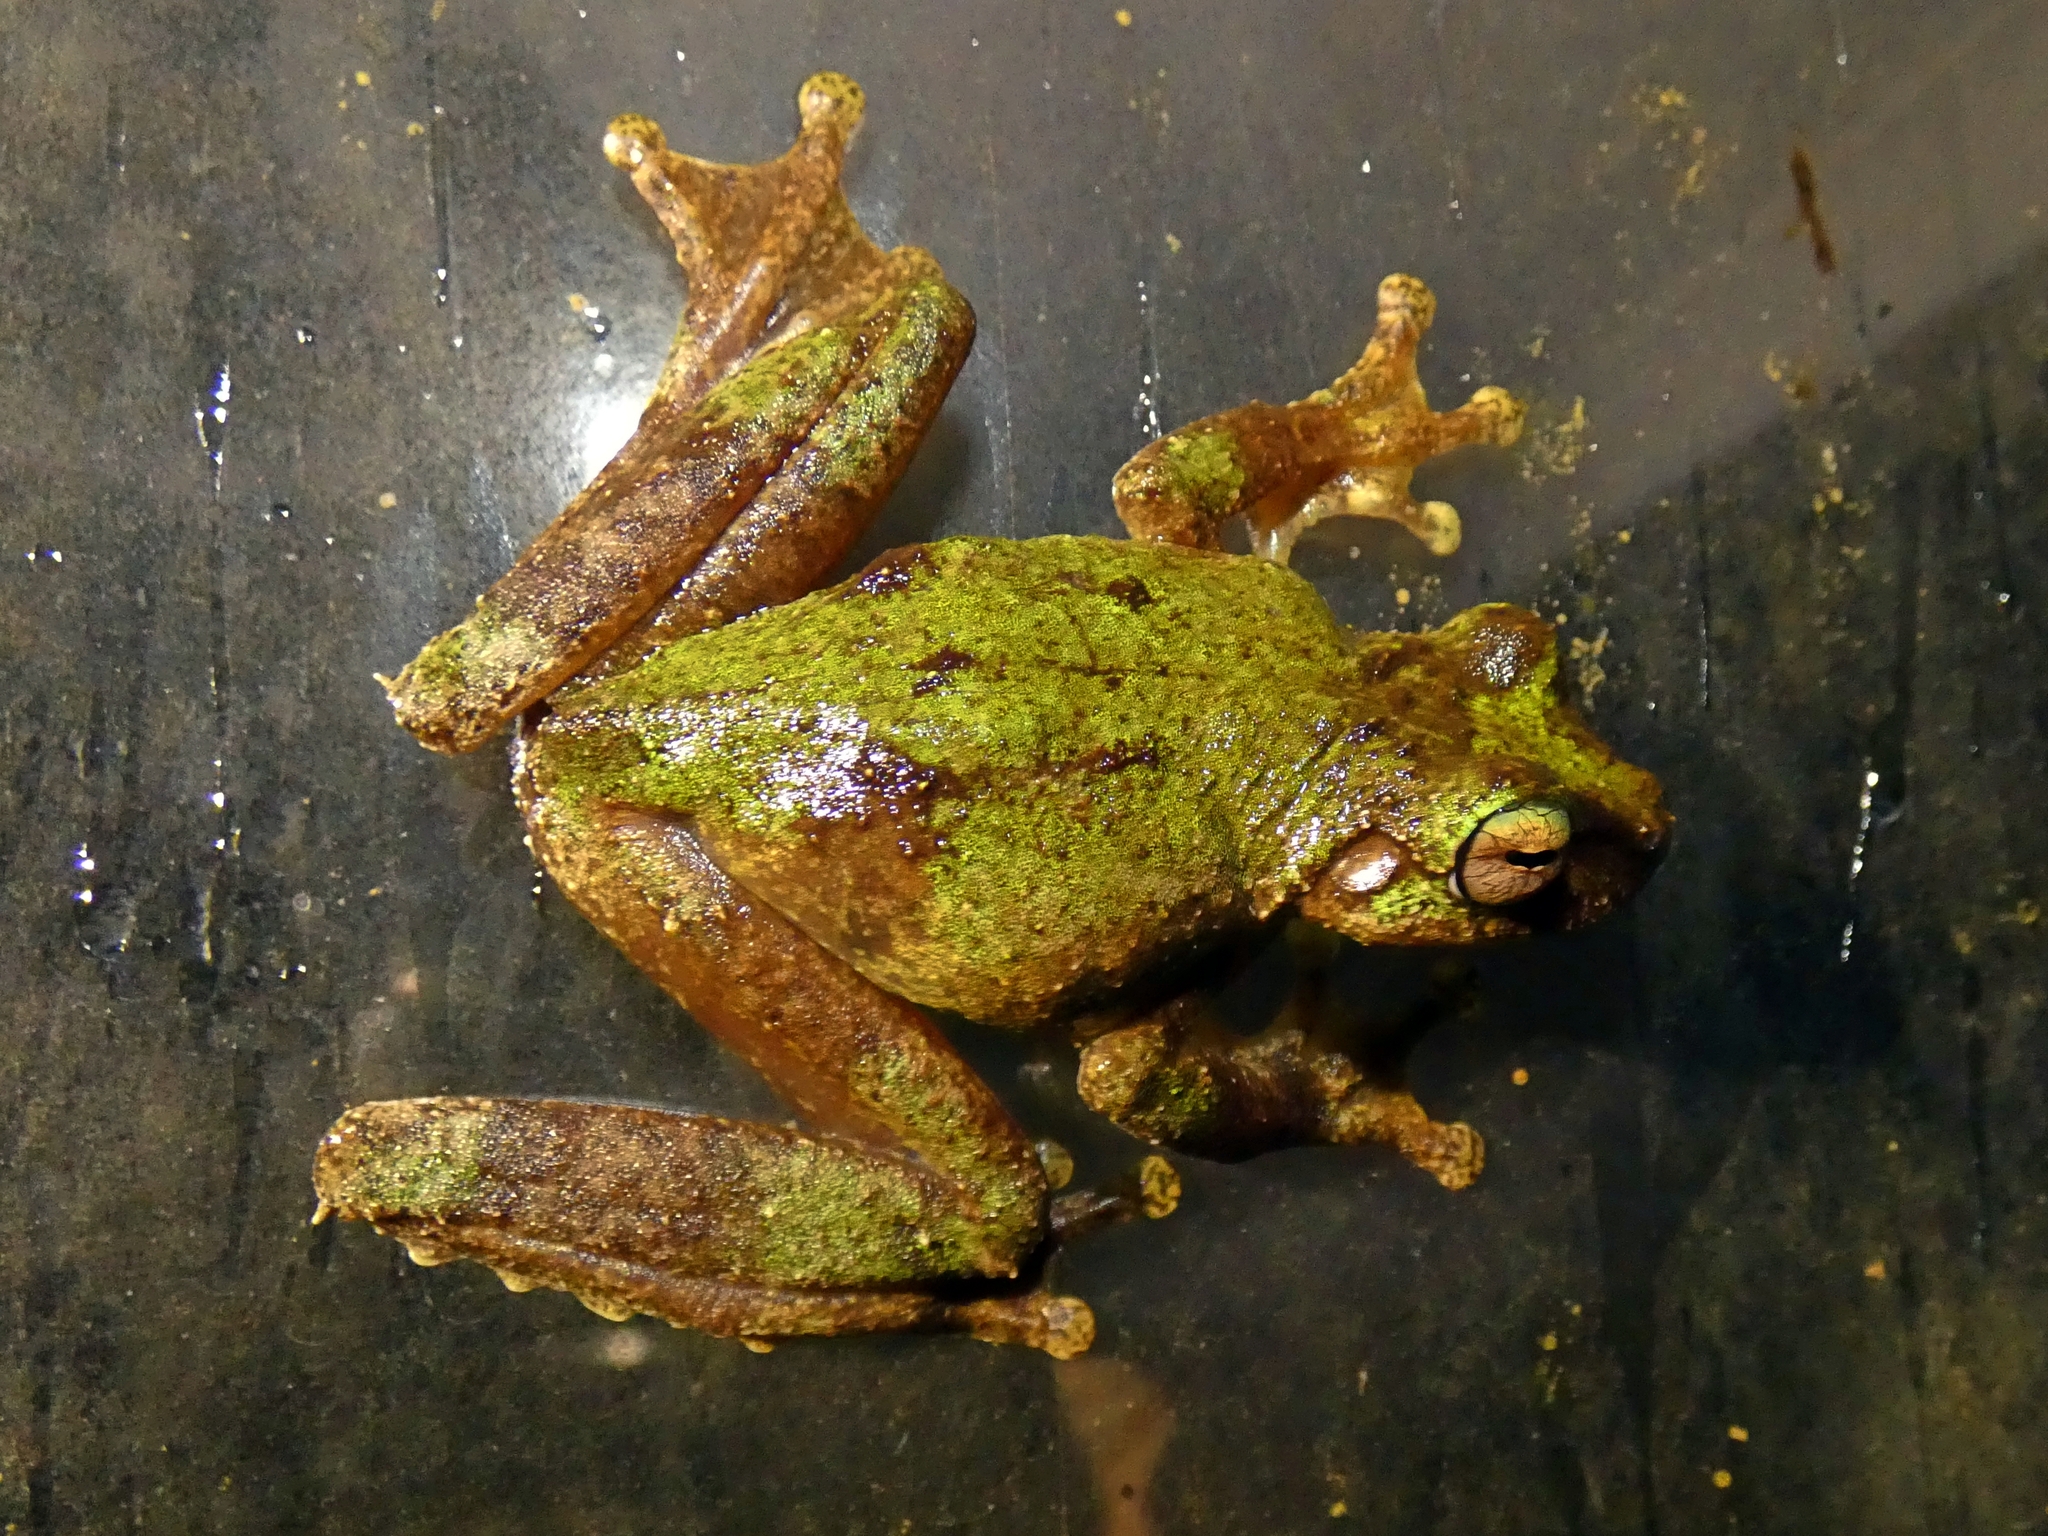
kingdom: Animalia
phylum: Chordata
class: Amphibia
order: Anura
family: Pelodryadidae
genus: Ranoidea
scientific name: Ranoidea serrata
